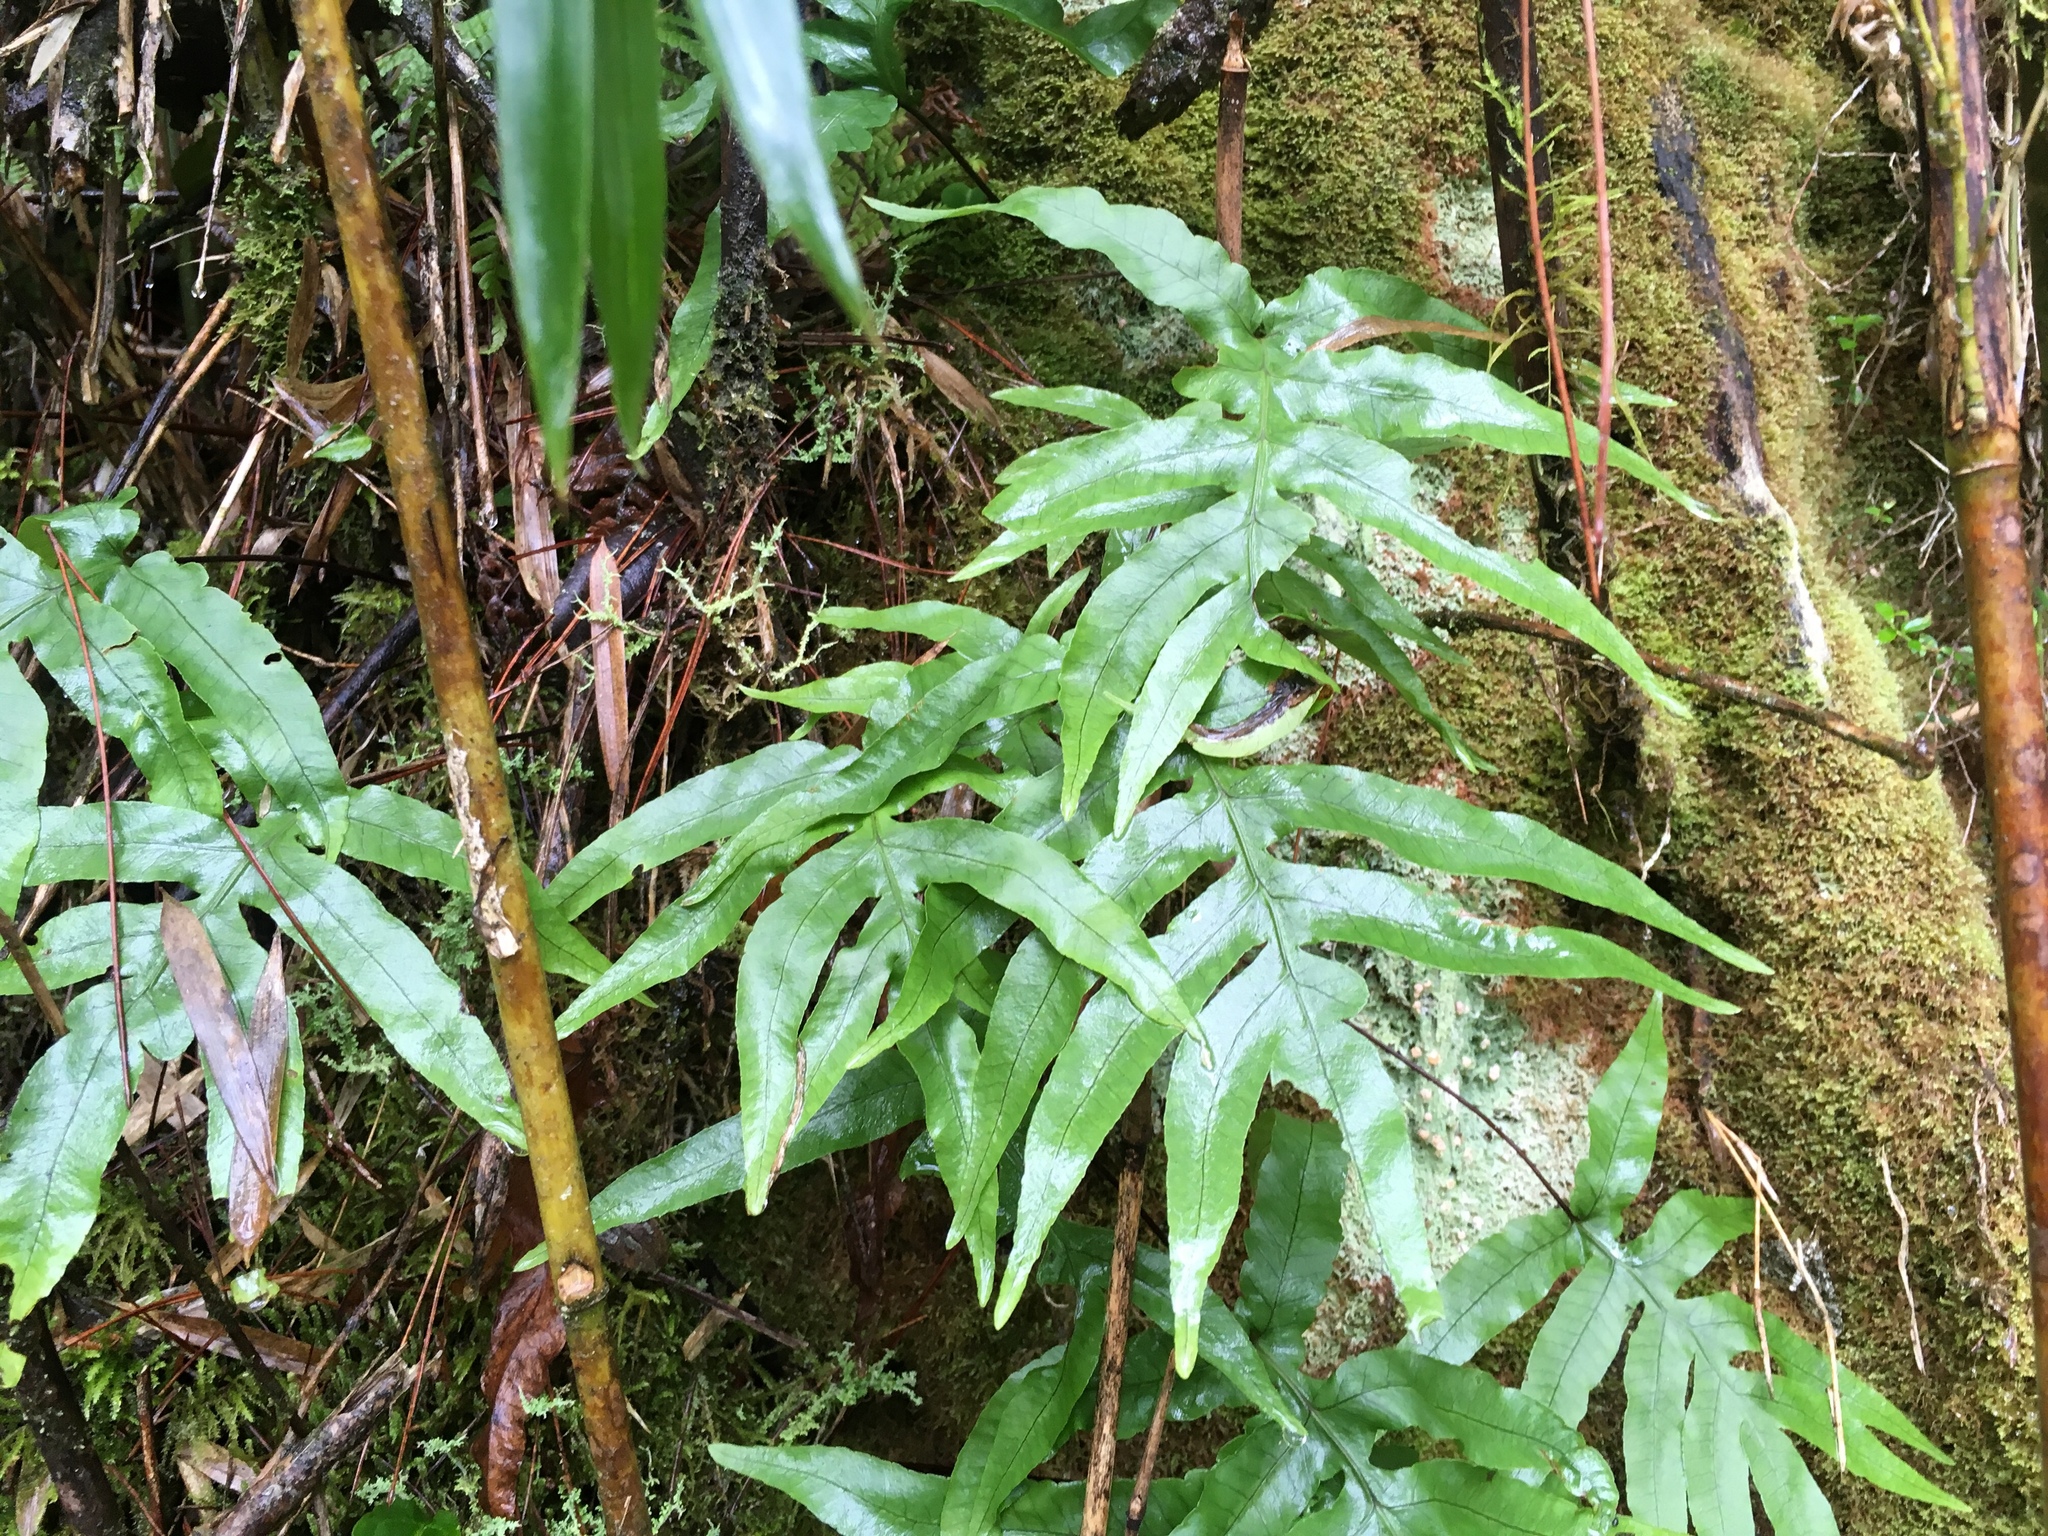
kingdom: Plantae
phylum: Tracheophyta
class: Polypodiopsida
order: Polypodiales
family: Polypodiaceae
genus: Selliguea
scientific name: Selliguea quasidivaricata
